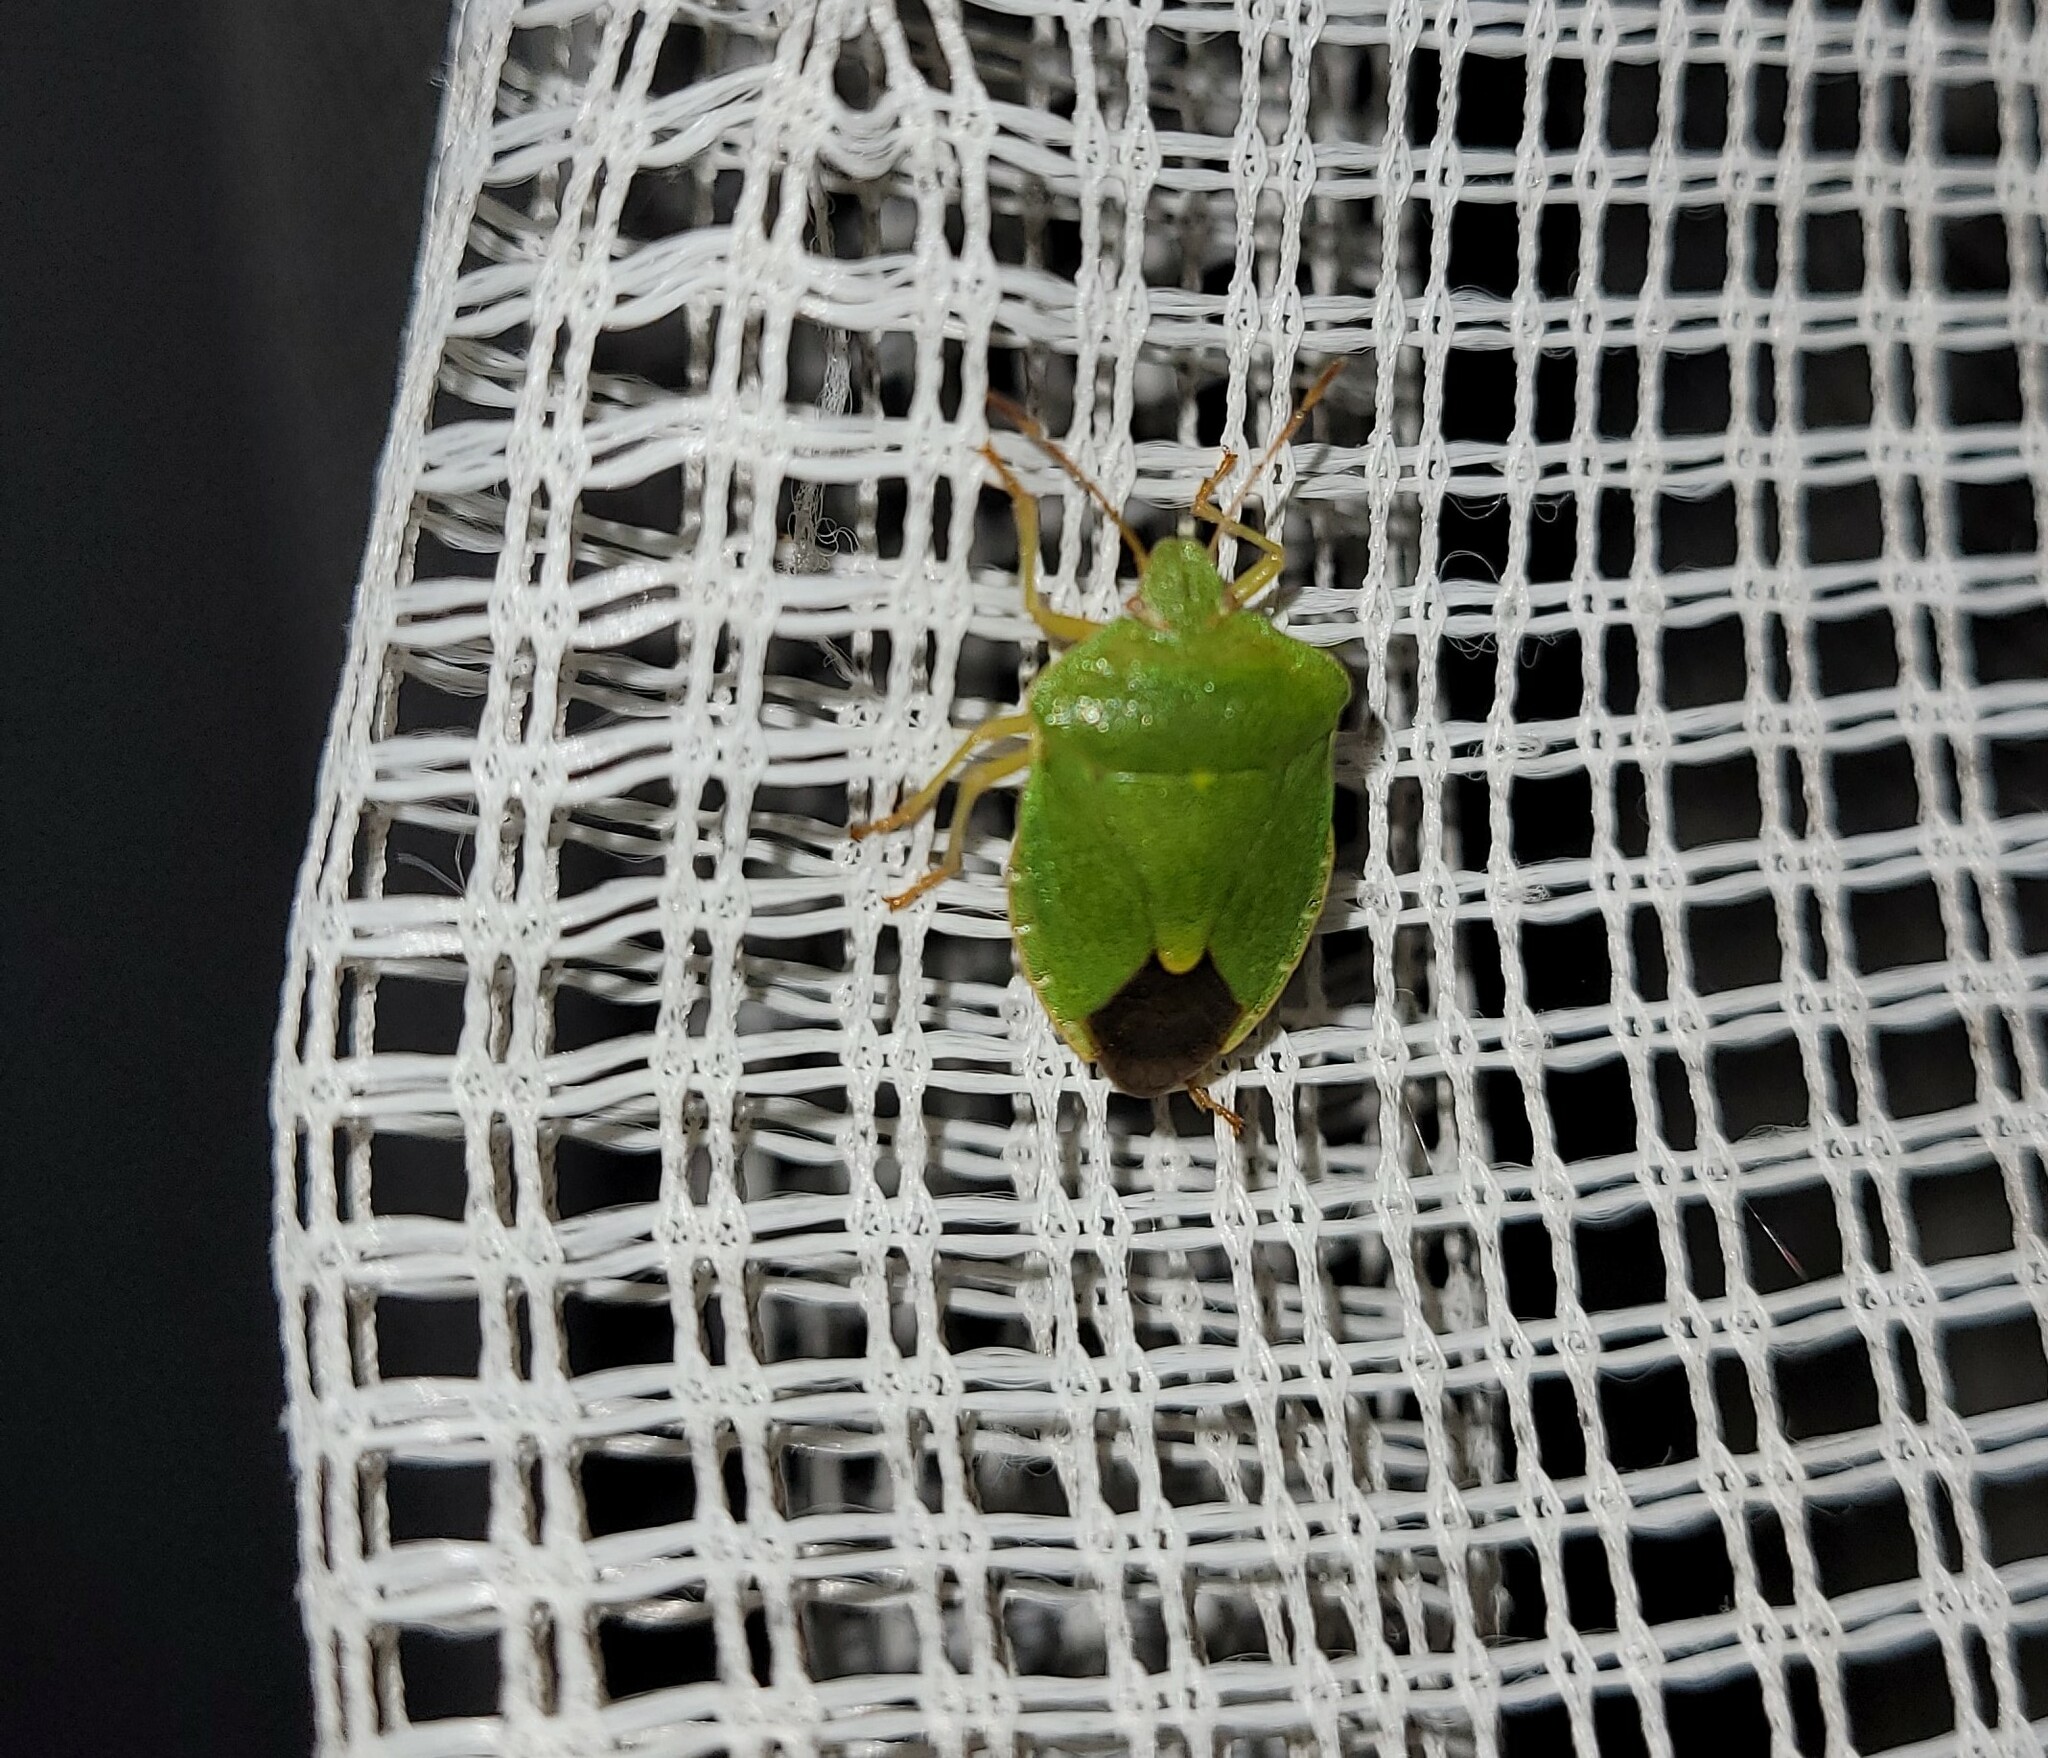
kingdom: Animalia
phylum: Arthropoda
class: Insecta
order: Hemiptera
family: Pentatomidae
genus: Palomena
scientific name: Palomena prasina
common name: Green shieldbug
